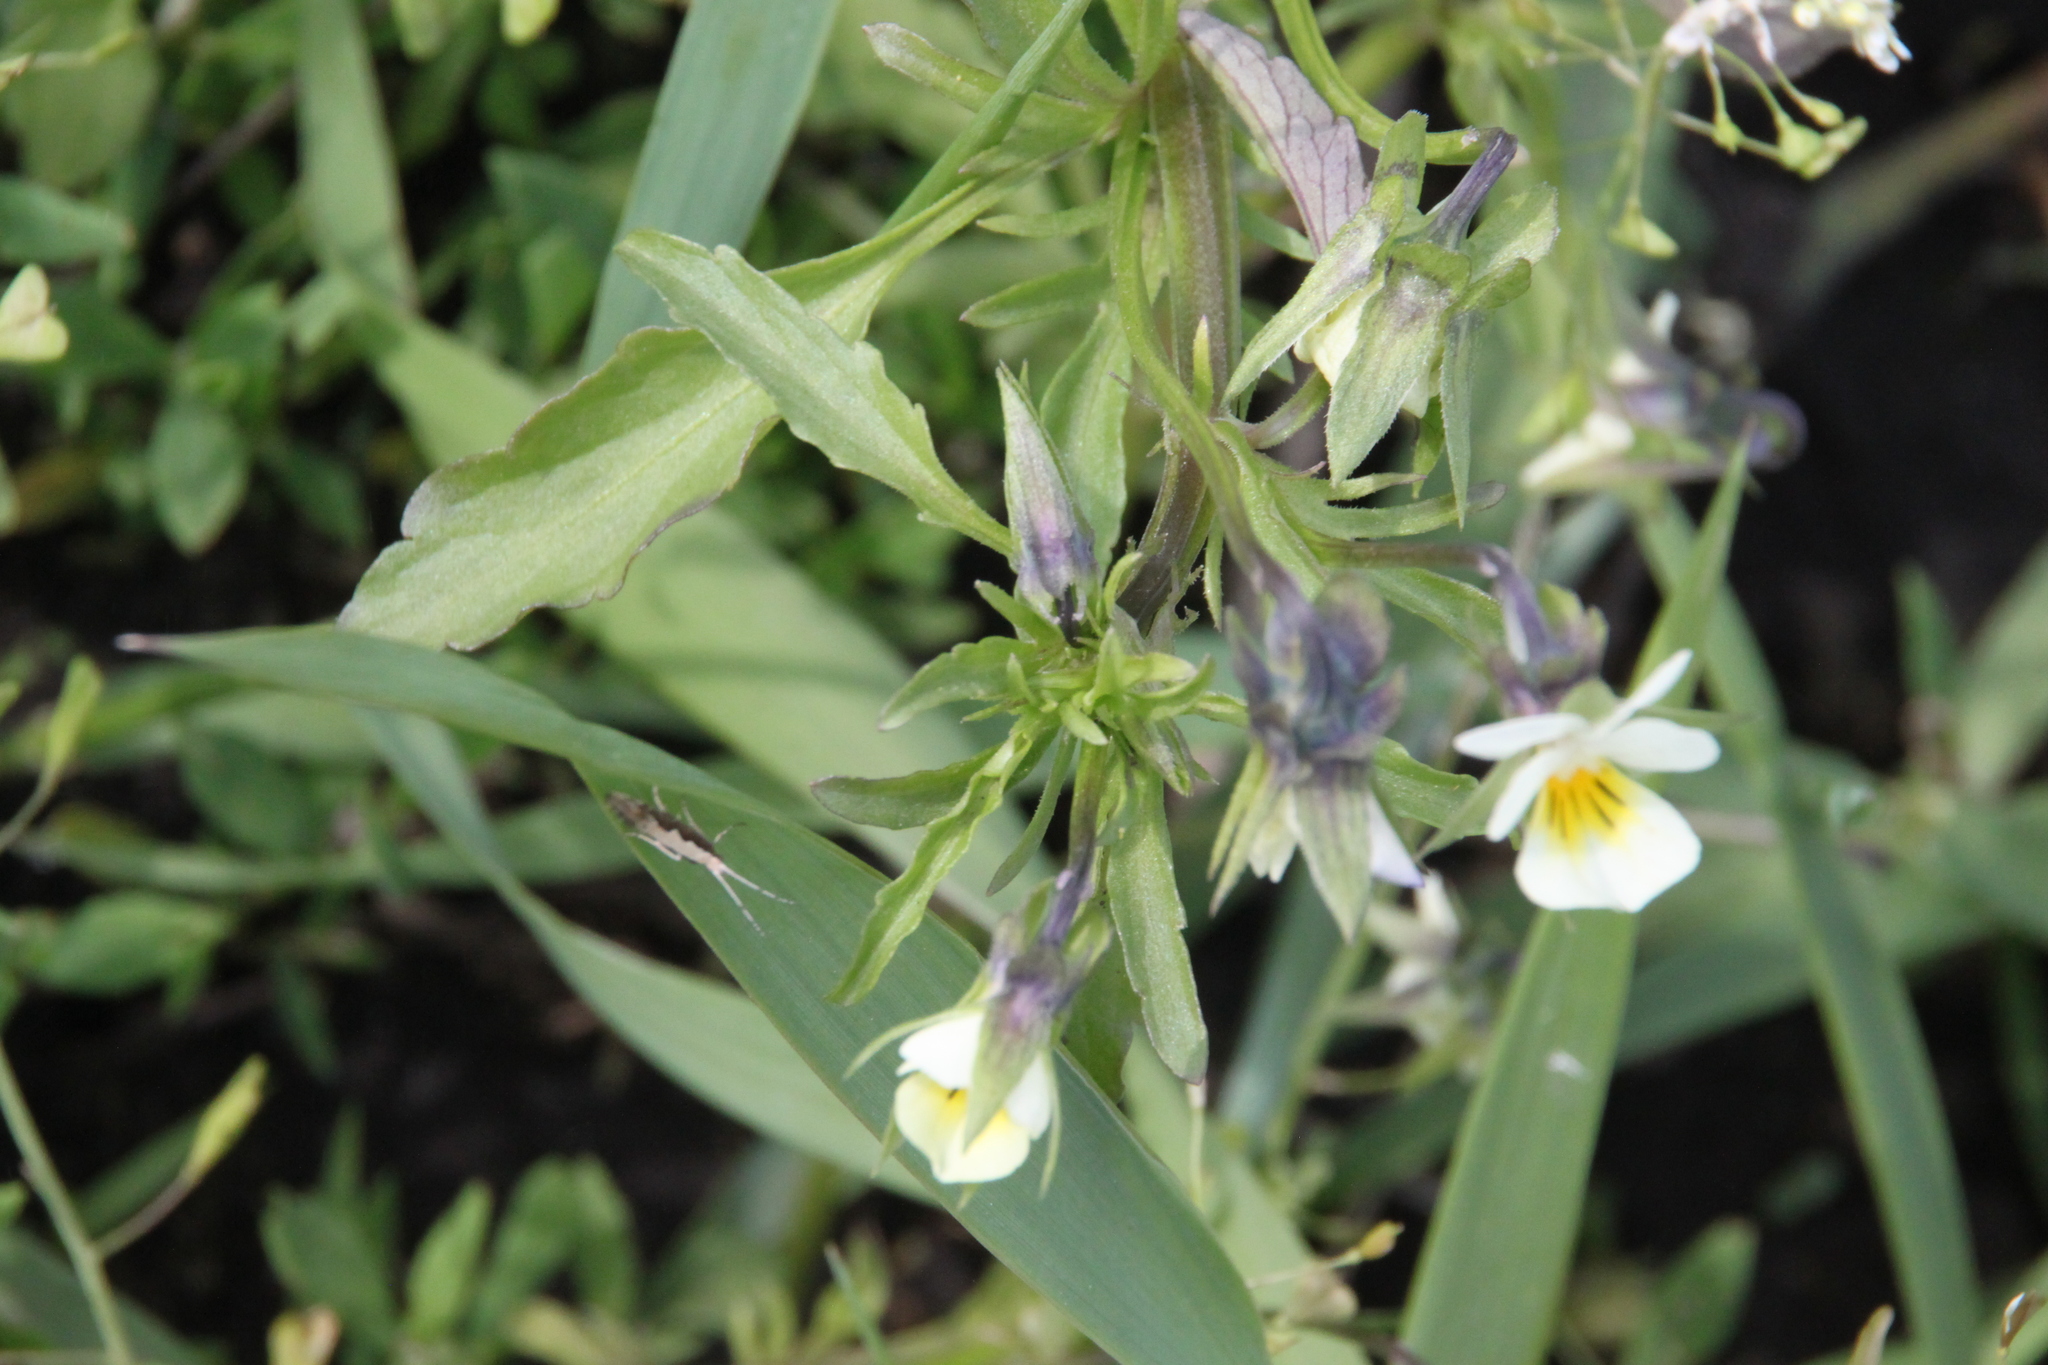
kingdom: Plantae
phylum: Tracheophyta
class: Magnoliopsida
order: Malpighiales
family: Violaceae
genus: Viola
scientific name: Viola arvensis
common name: Field pansy
